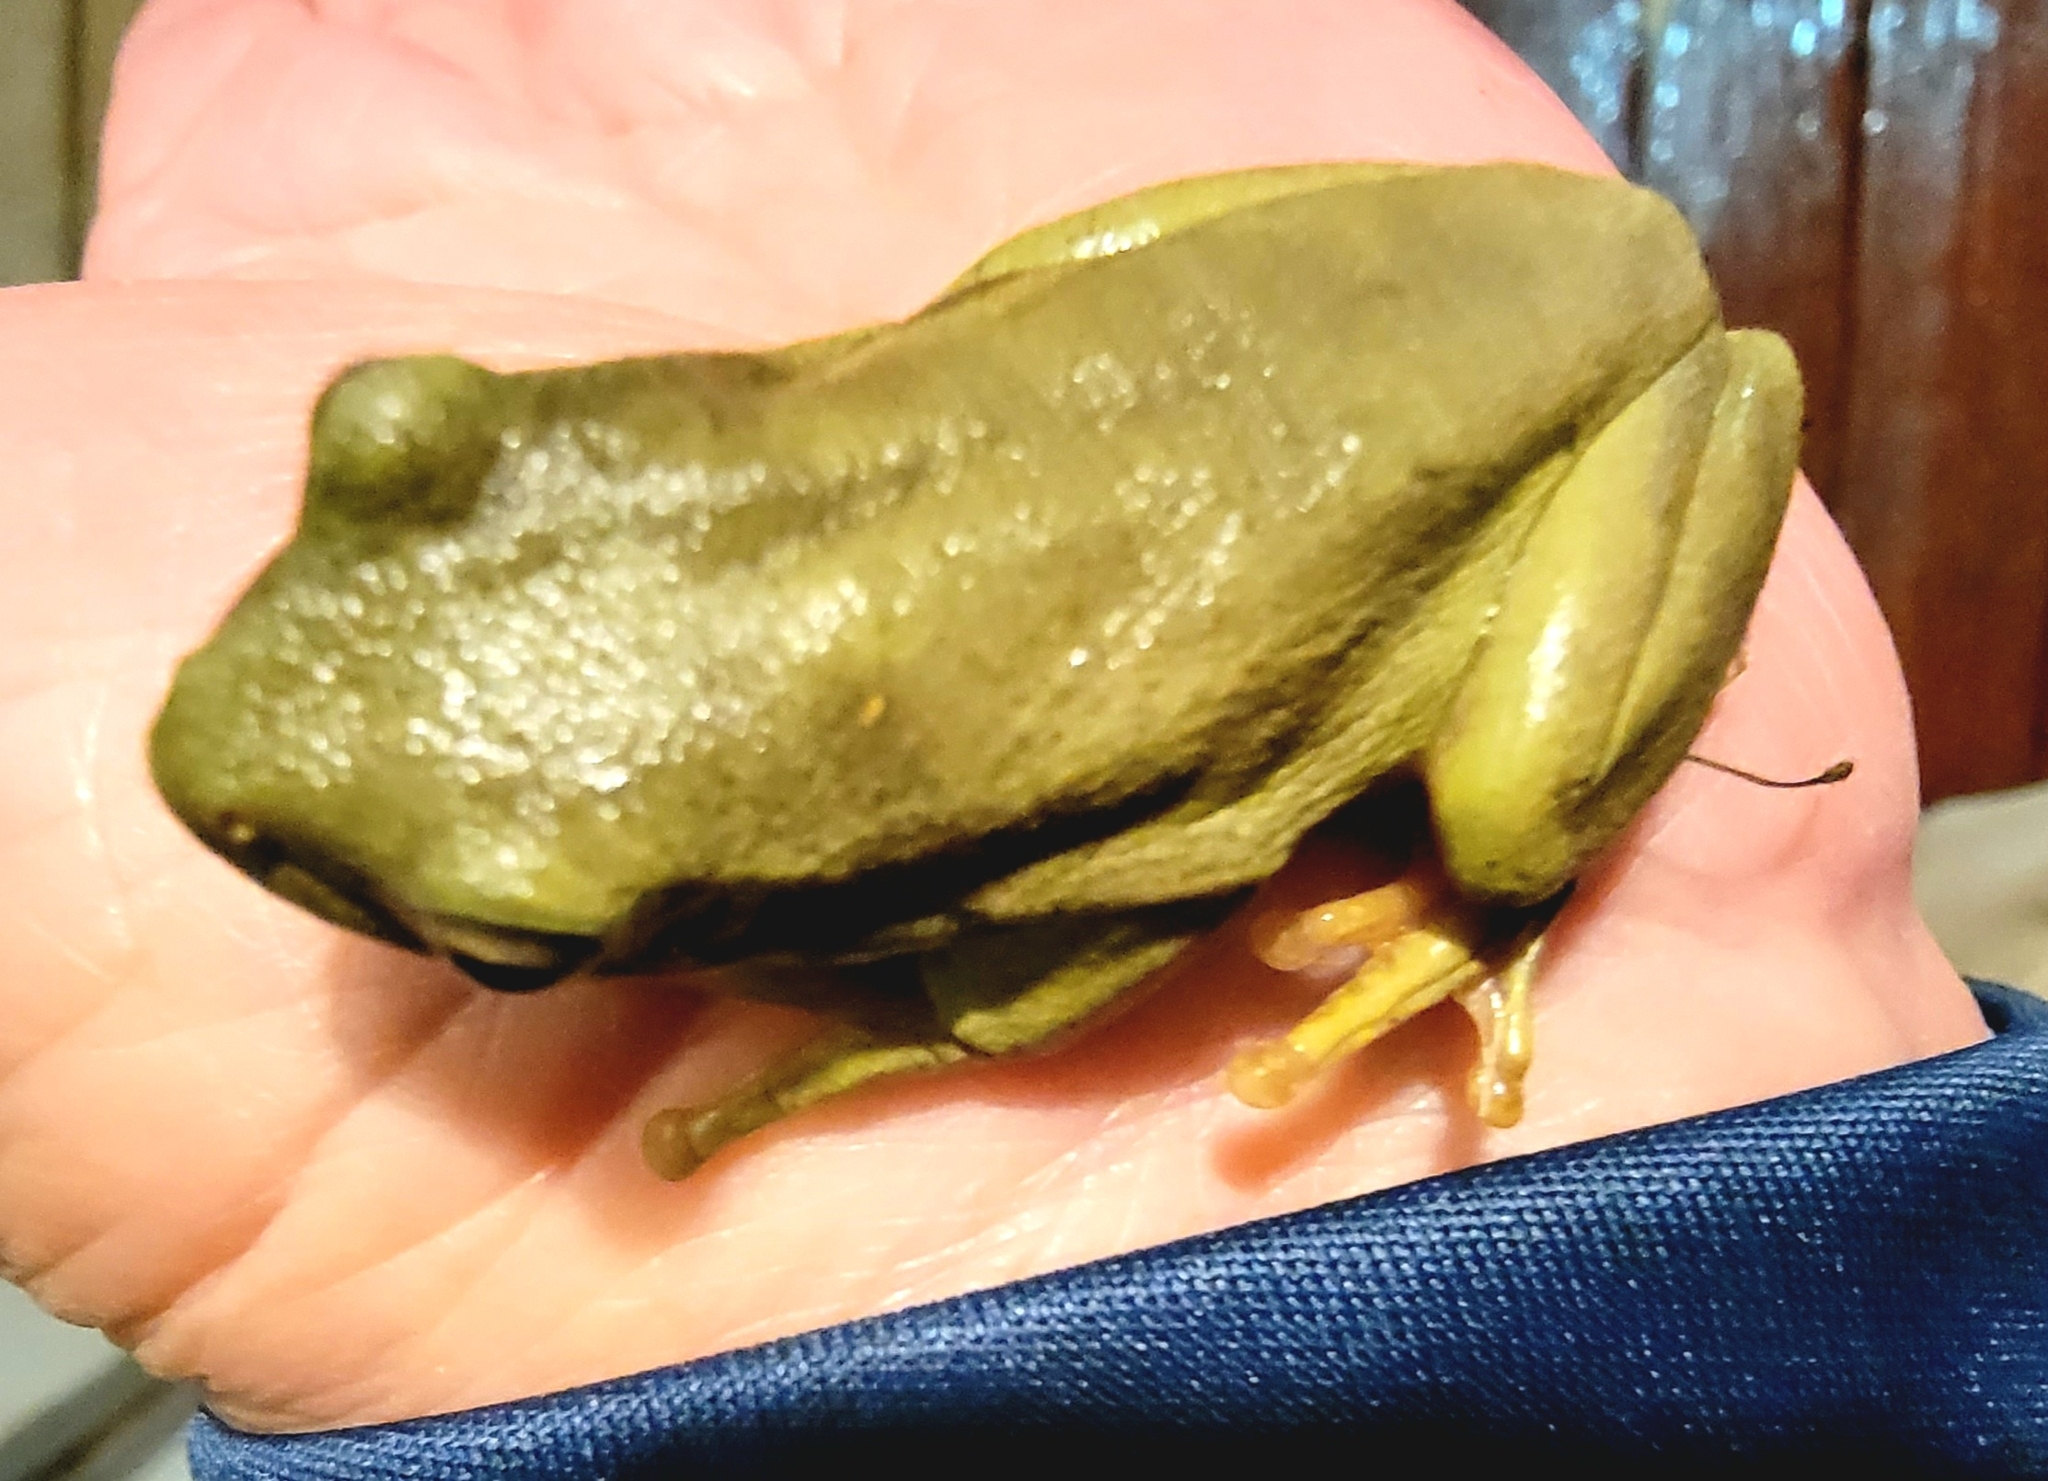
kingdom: Animalia
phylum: Chordata
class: Amphibia
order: Anura
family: Hylidae
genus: Dryophytes
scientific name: Dryophytes cinereus
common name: Green treefrog
